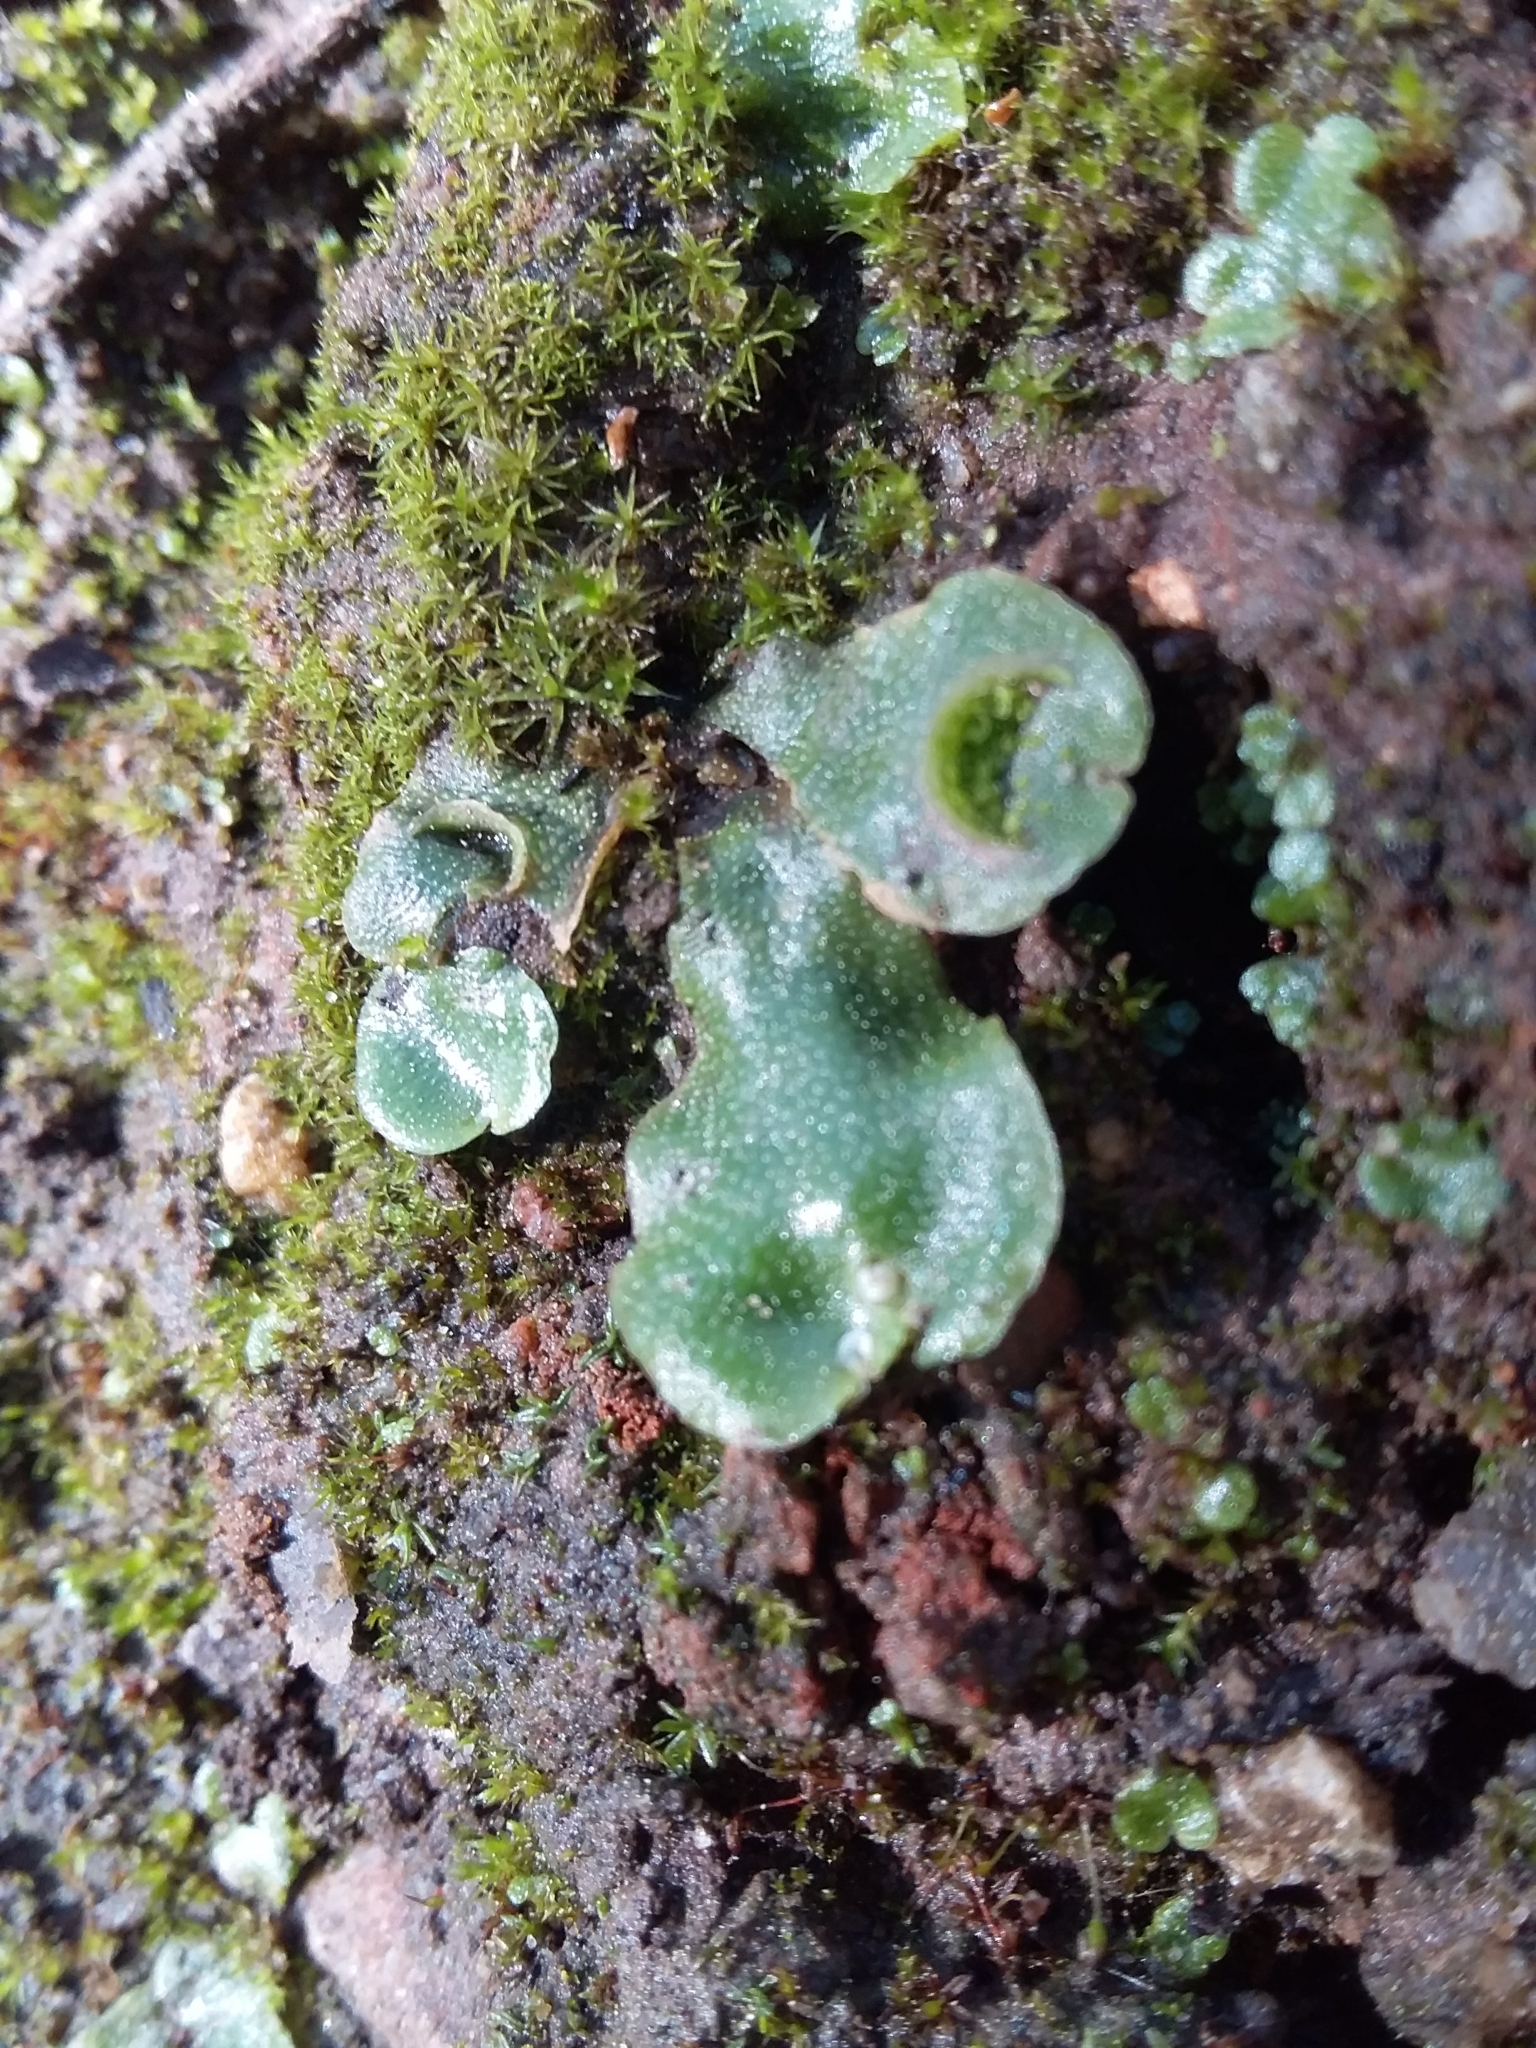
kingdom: Plantae
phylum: Marchantiophyta
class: Marchantiopsida
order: Lunulariales
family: Lunulariaceae
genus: Lunularia
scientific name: Lunularia cruciata
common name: Crescent-cup liverwort
